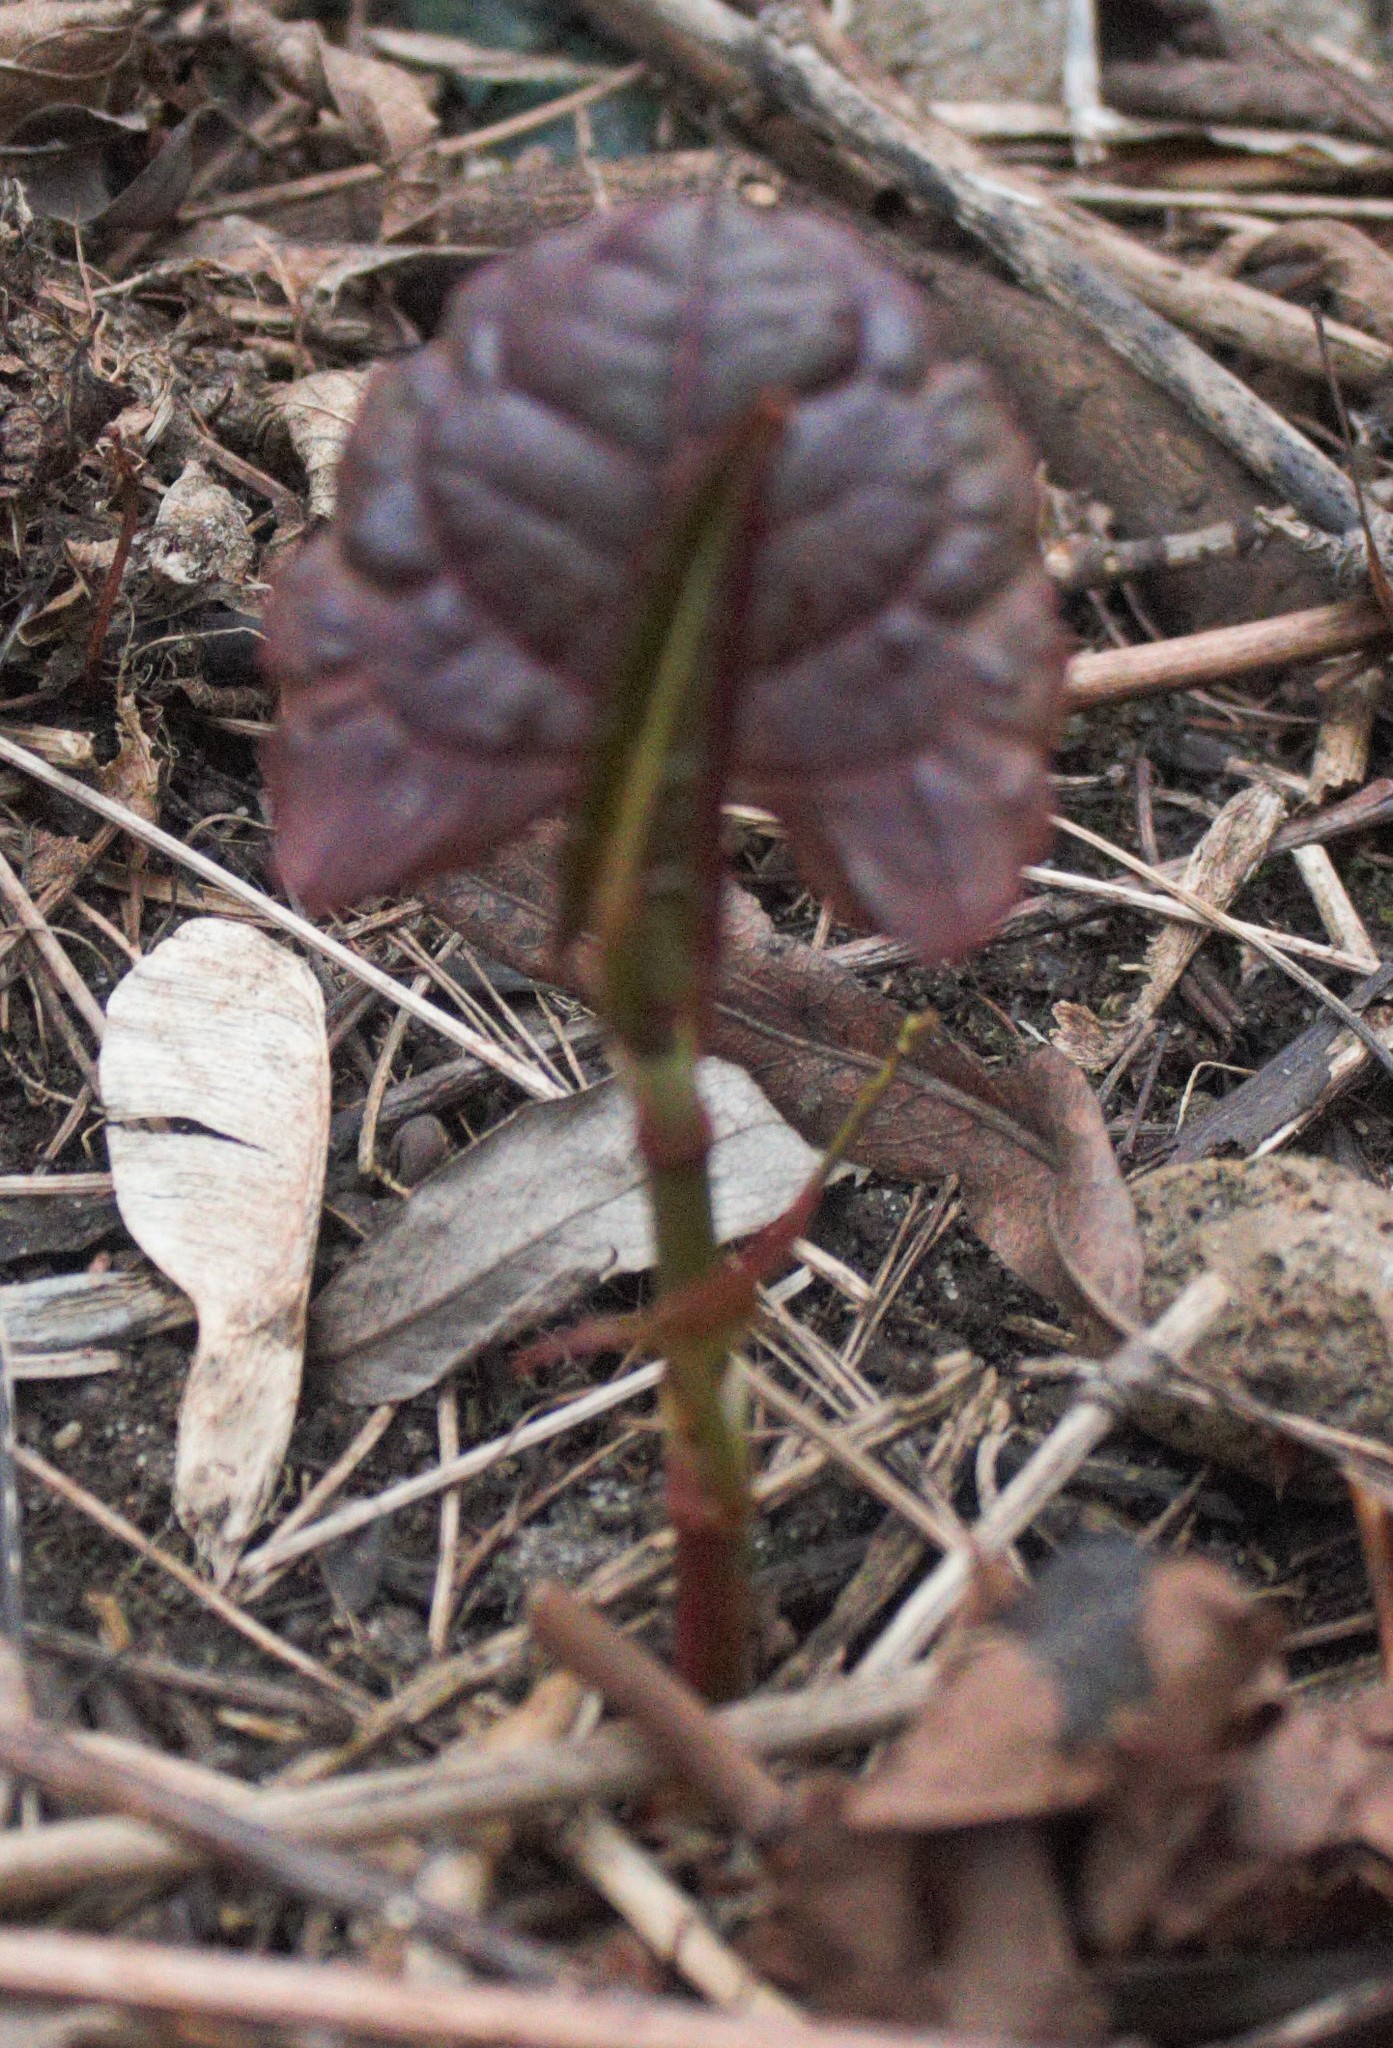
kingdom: Plantae
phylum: Tracheophyta
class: Magnoliopsida
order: Caryophyllales
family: Polygonaceae
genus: Reynoutria
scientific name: Reynoutria bohemica
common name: Bohemian knotweed
